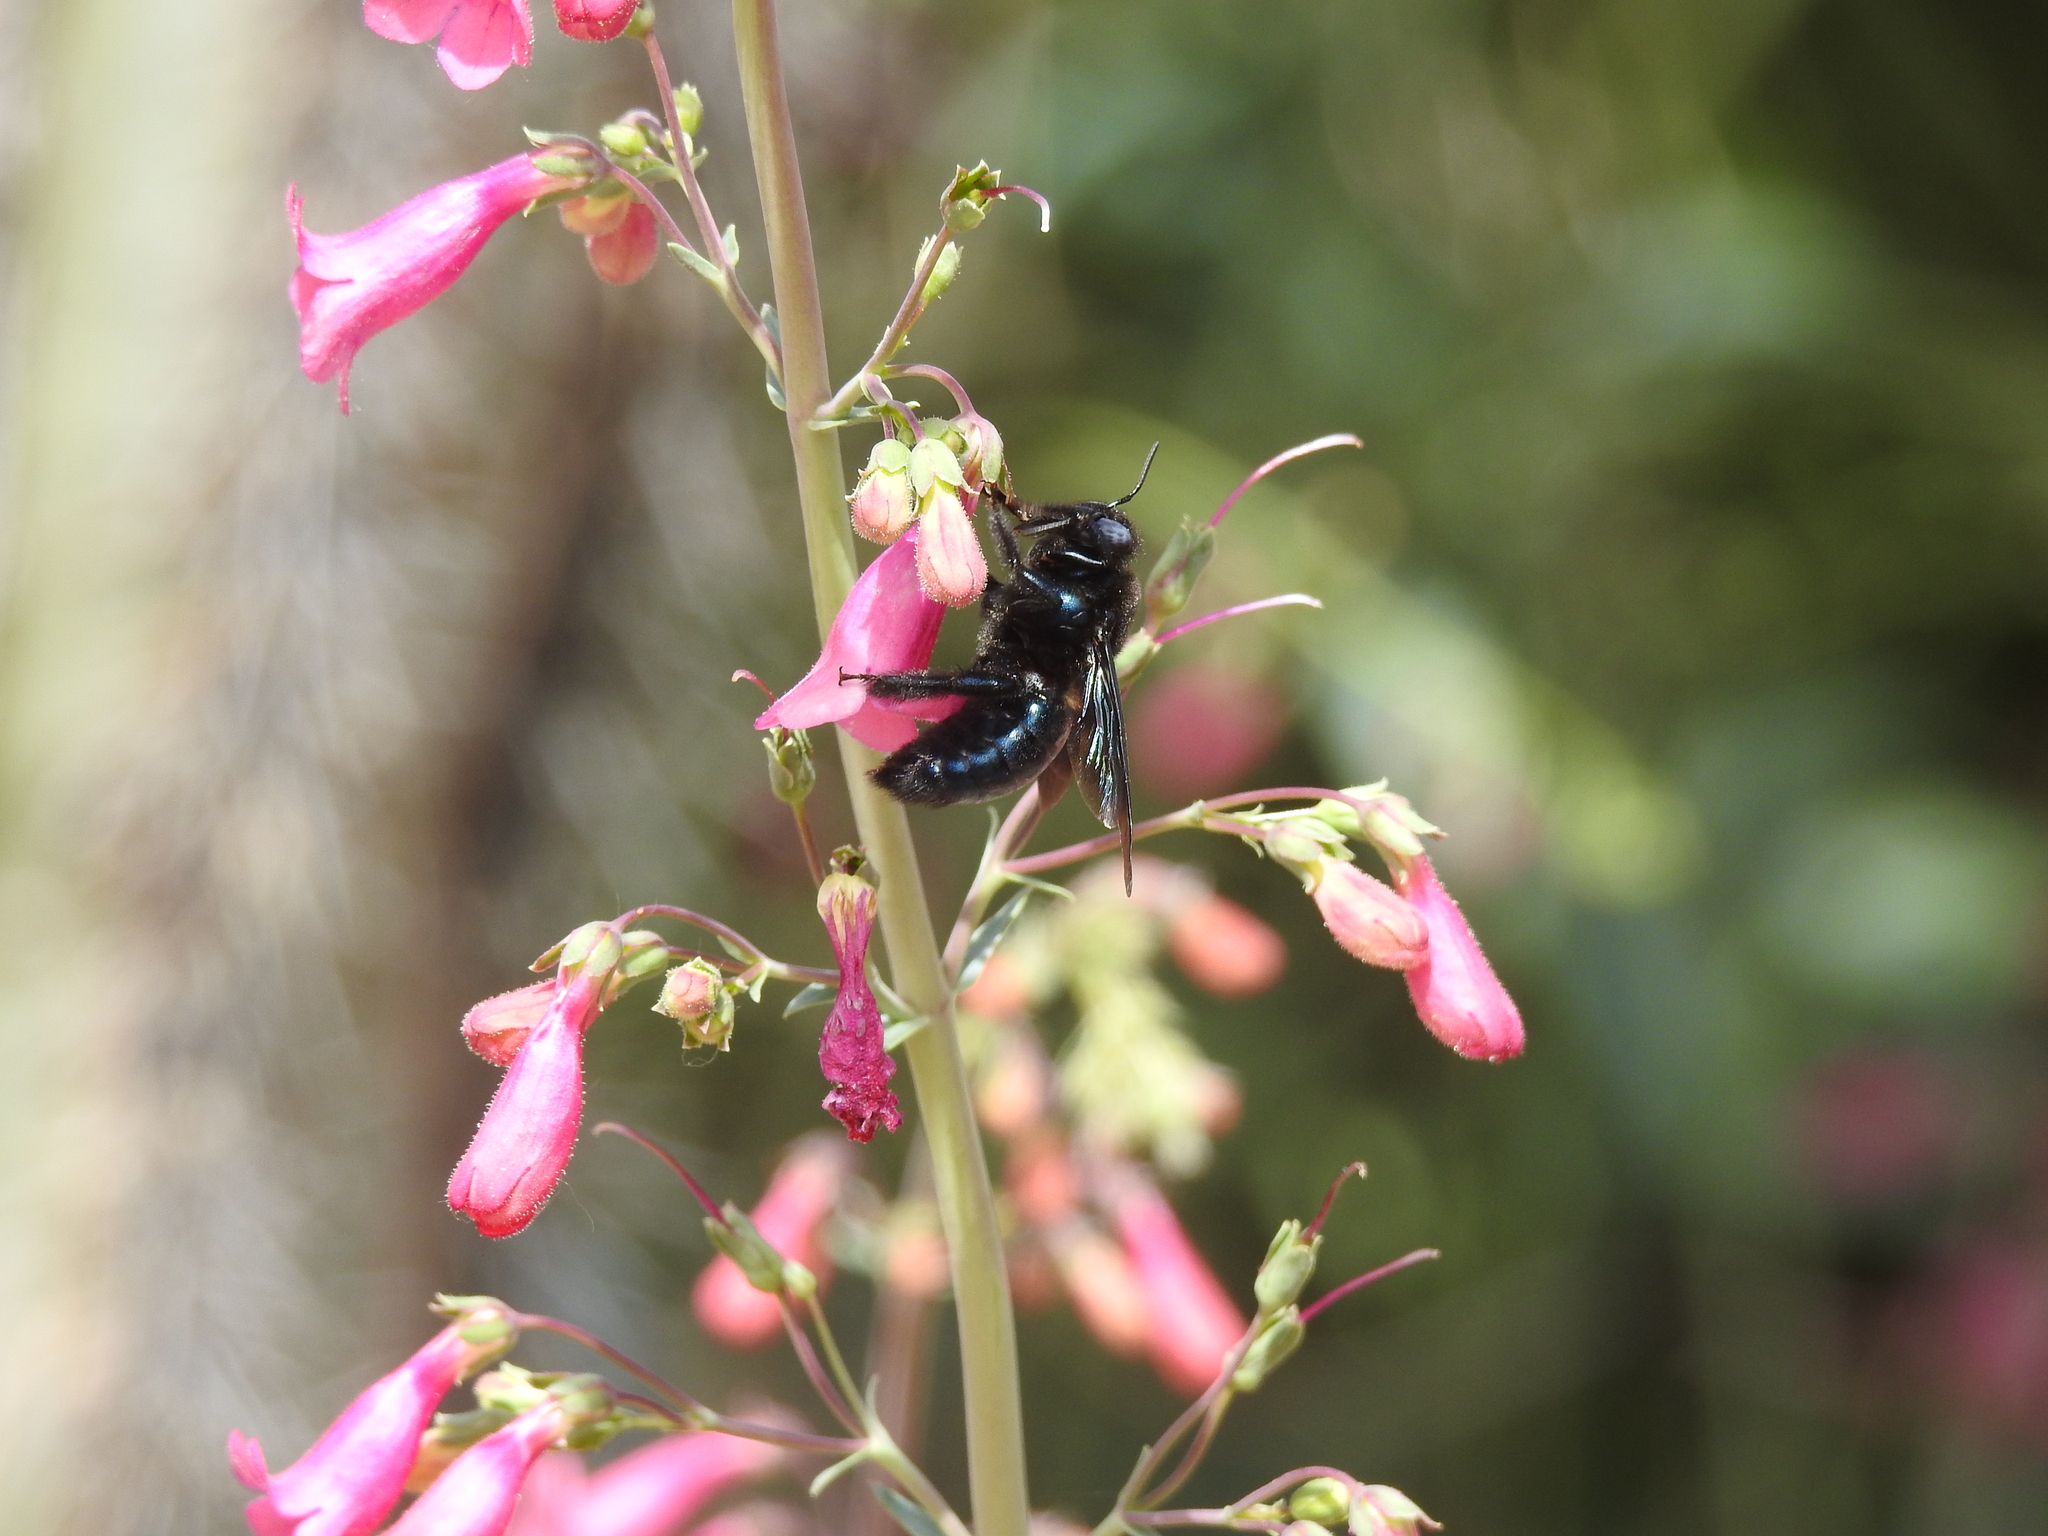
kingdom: Animalia
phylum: Arthropoda
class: Insecta
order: Hymenoptera
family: Apidae
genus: Xylocopa
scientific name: Xylocopa californica
